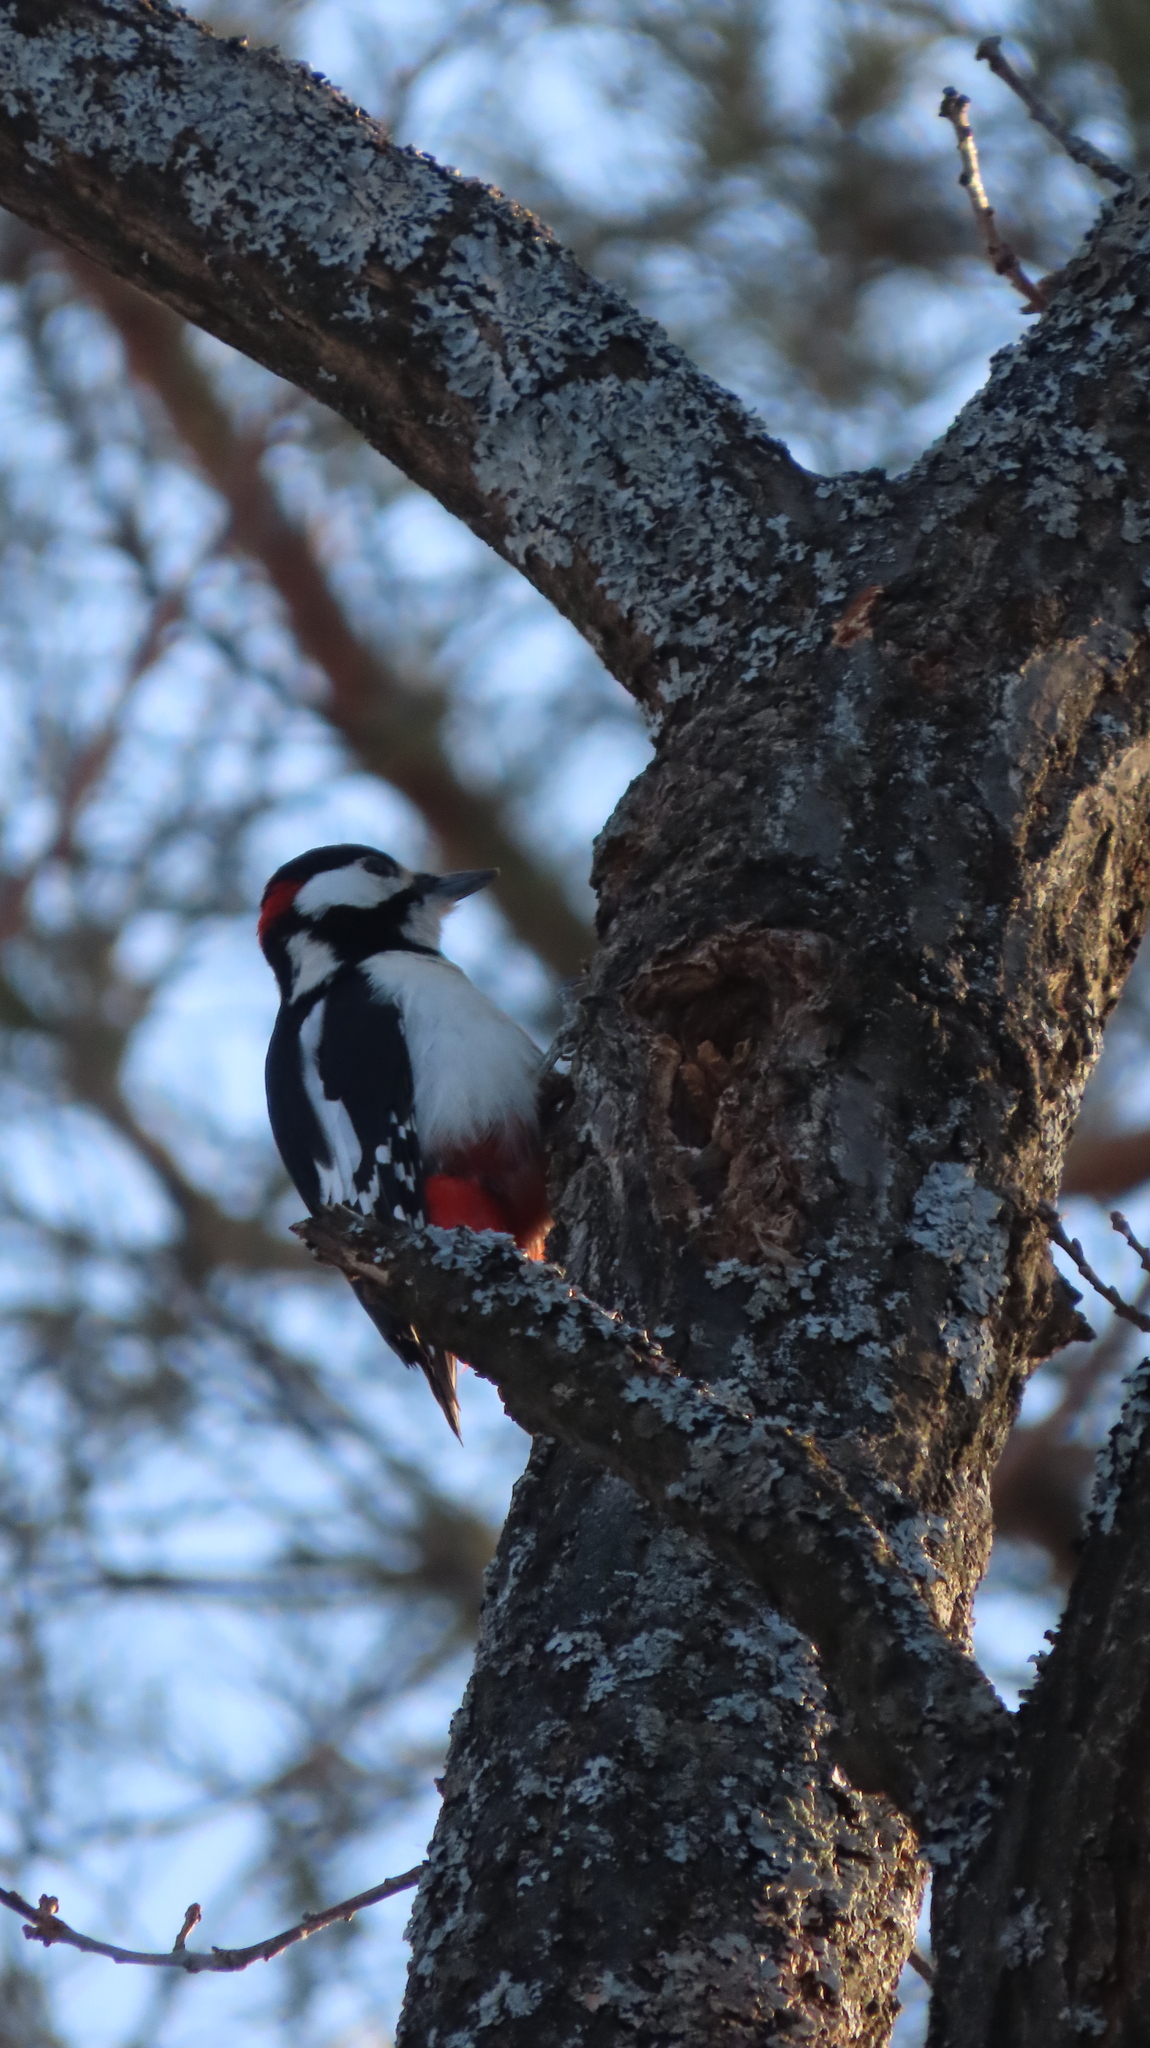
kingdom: Animalia
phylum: Chordata
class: Aves
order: Piciformes
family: Picidae
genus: Dendrocopos
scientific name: Dendrocopos major
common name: Great spotted woodpecker
